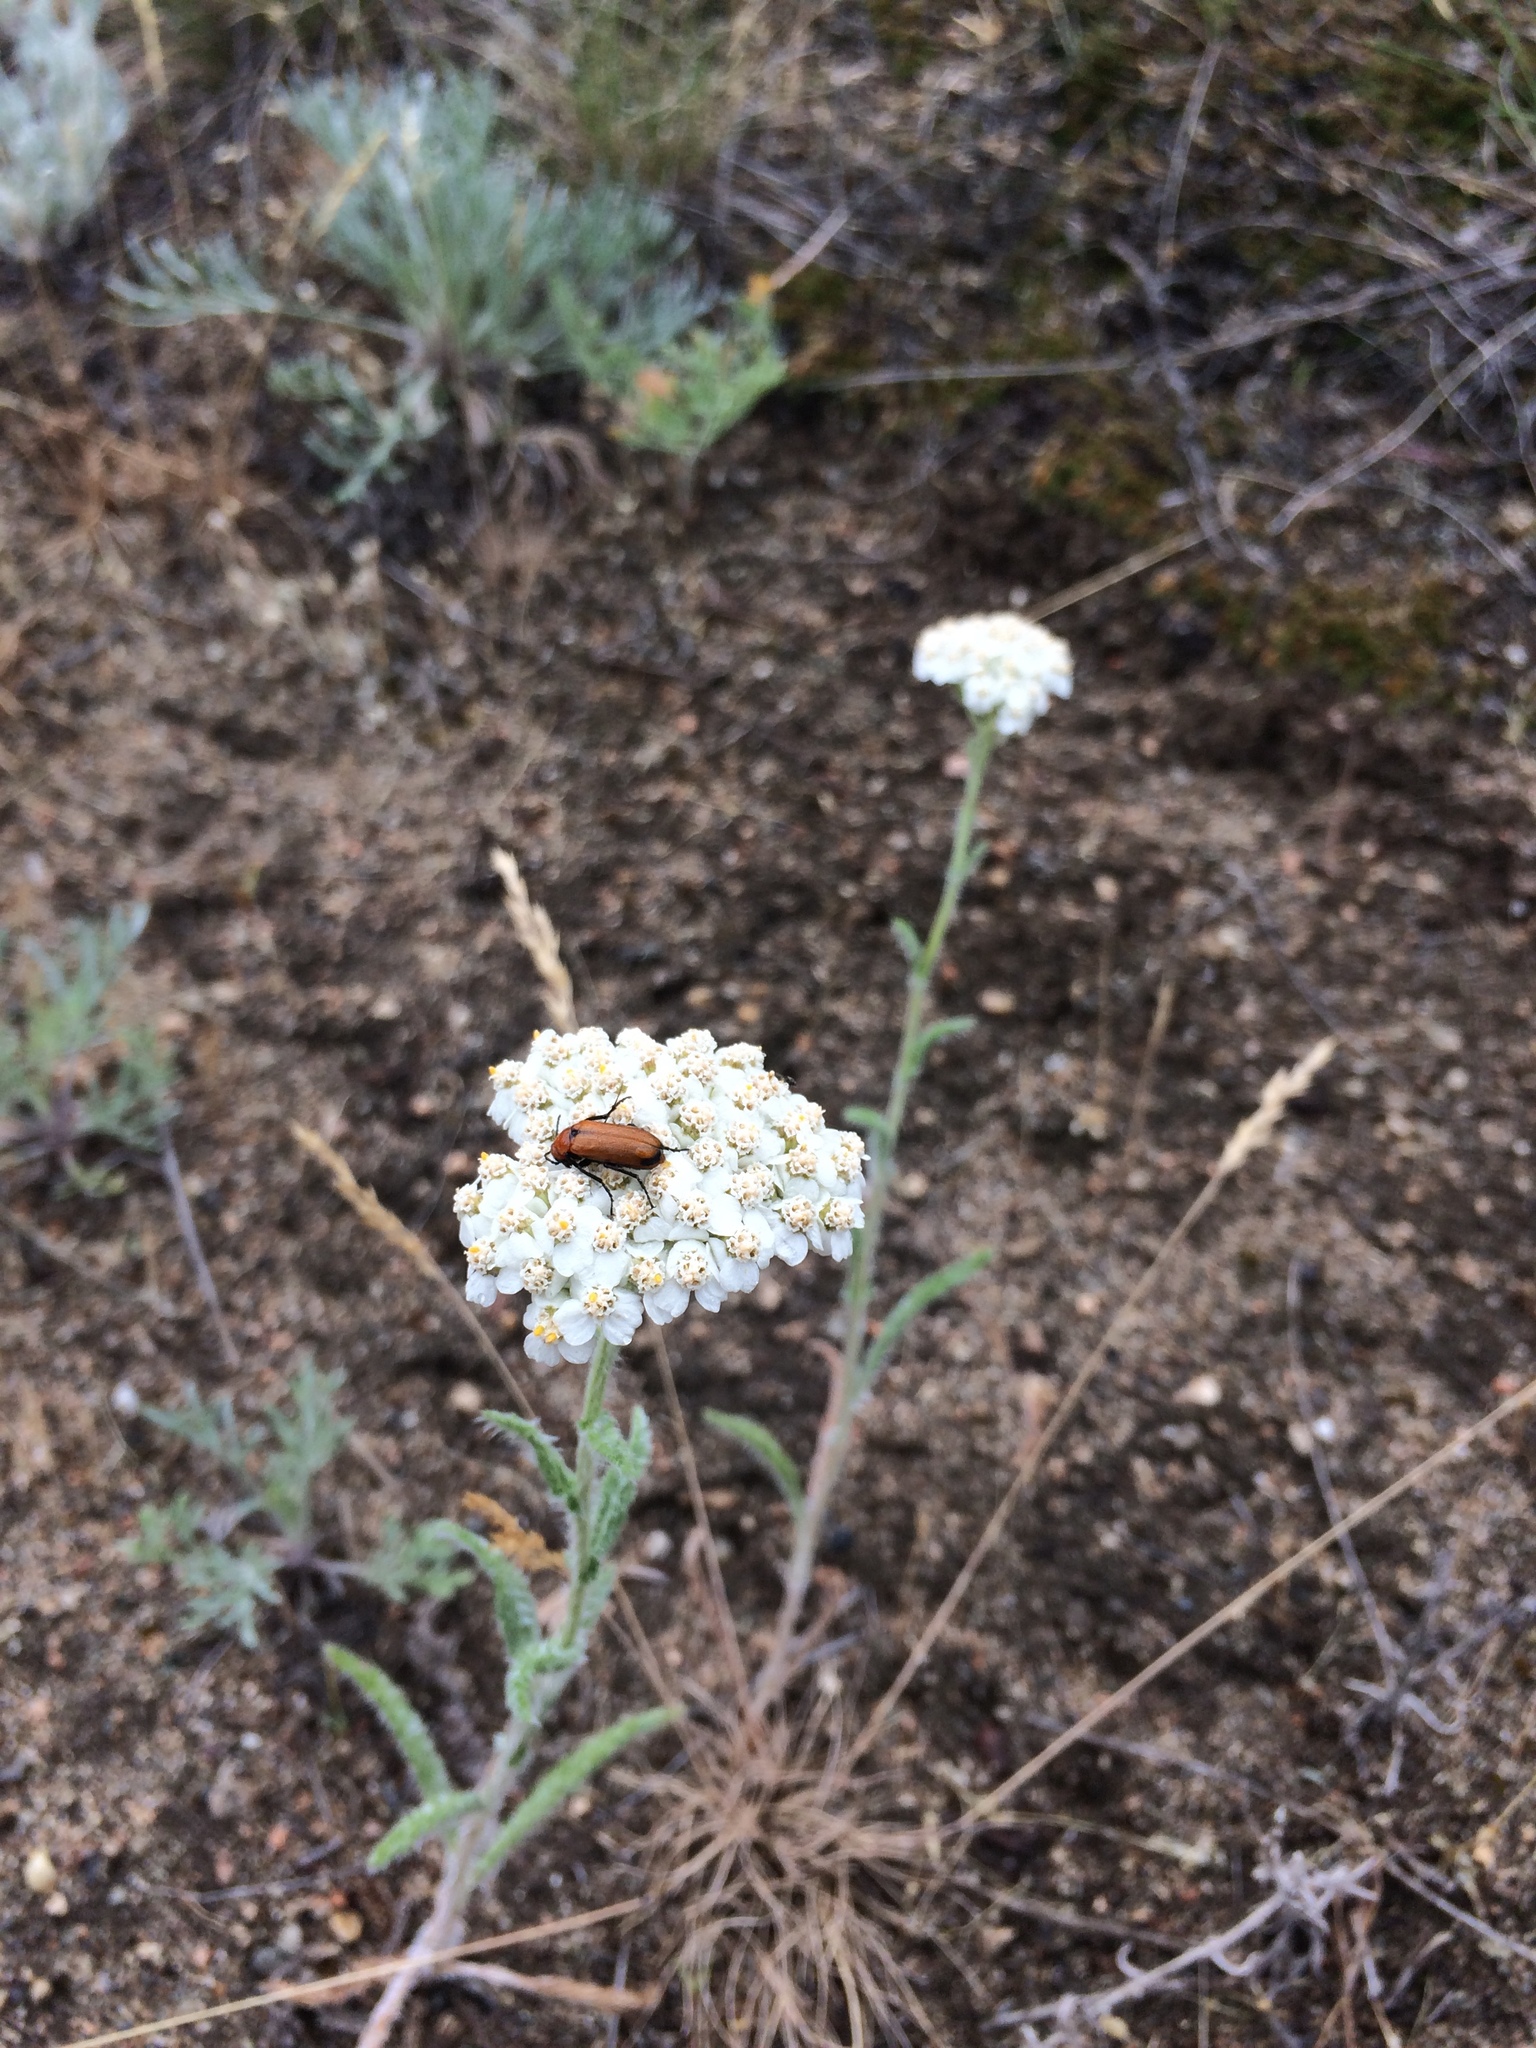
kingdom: Plantae
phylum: Tracheophyta
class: Magnoliopsida
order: Asterales
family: Asteraceae
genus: Achillea
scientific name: Achillea millefolium
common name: Yarrow
